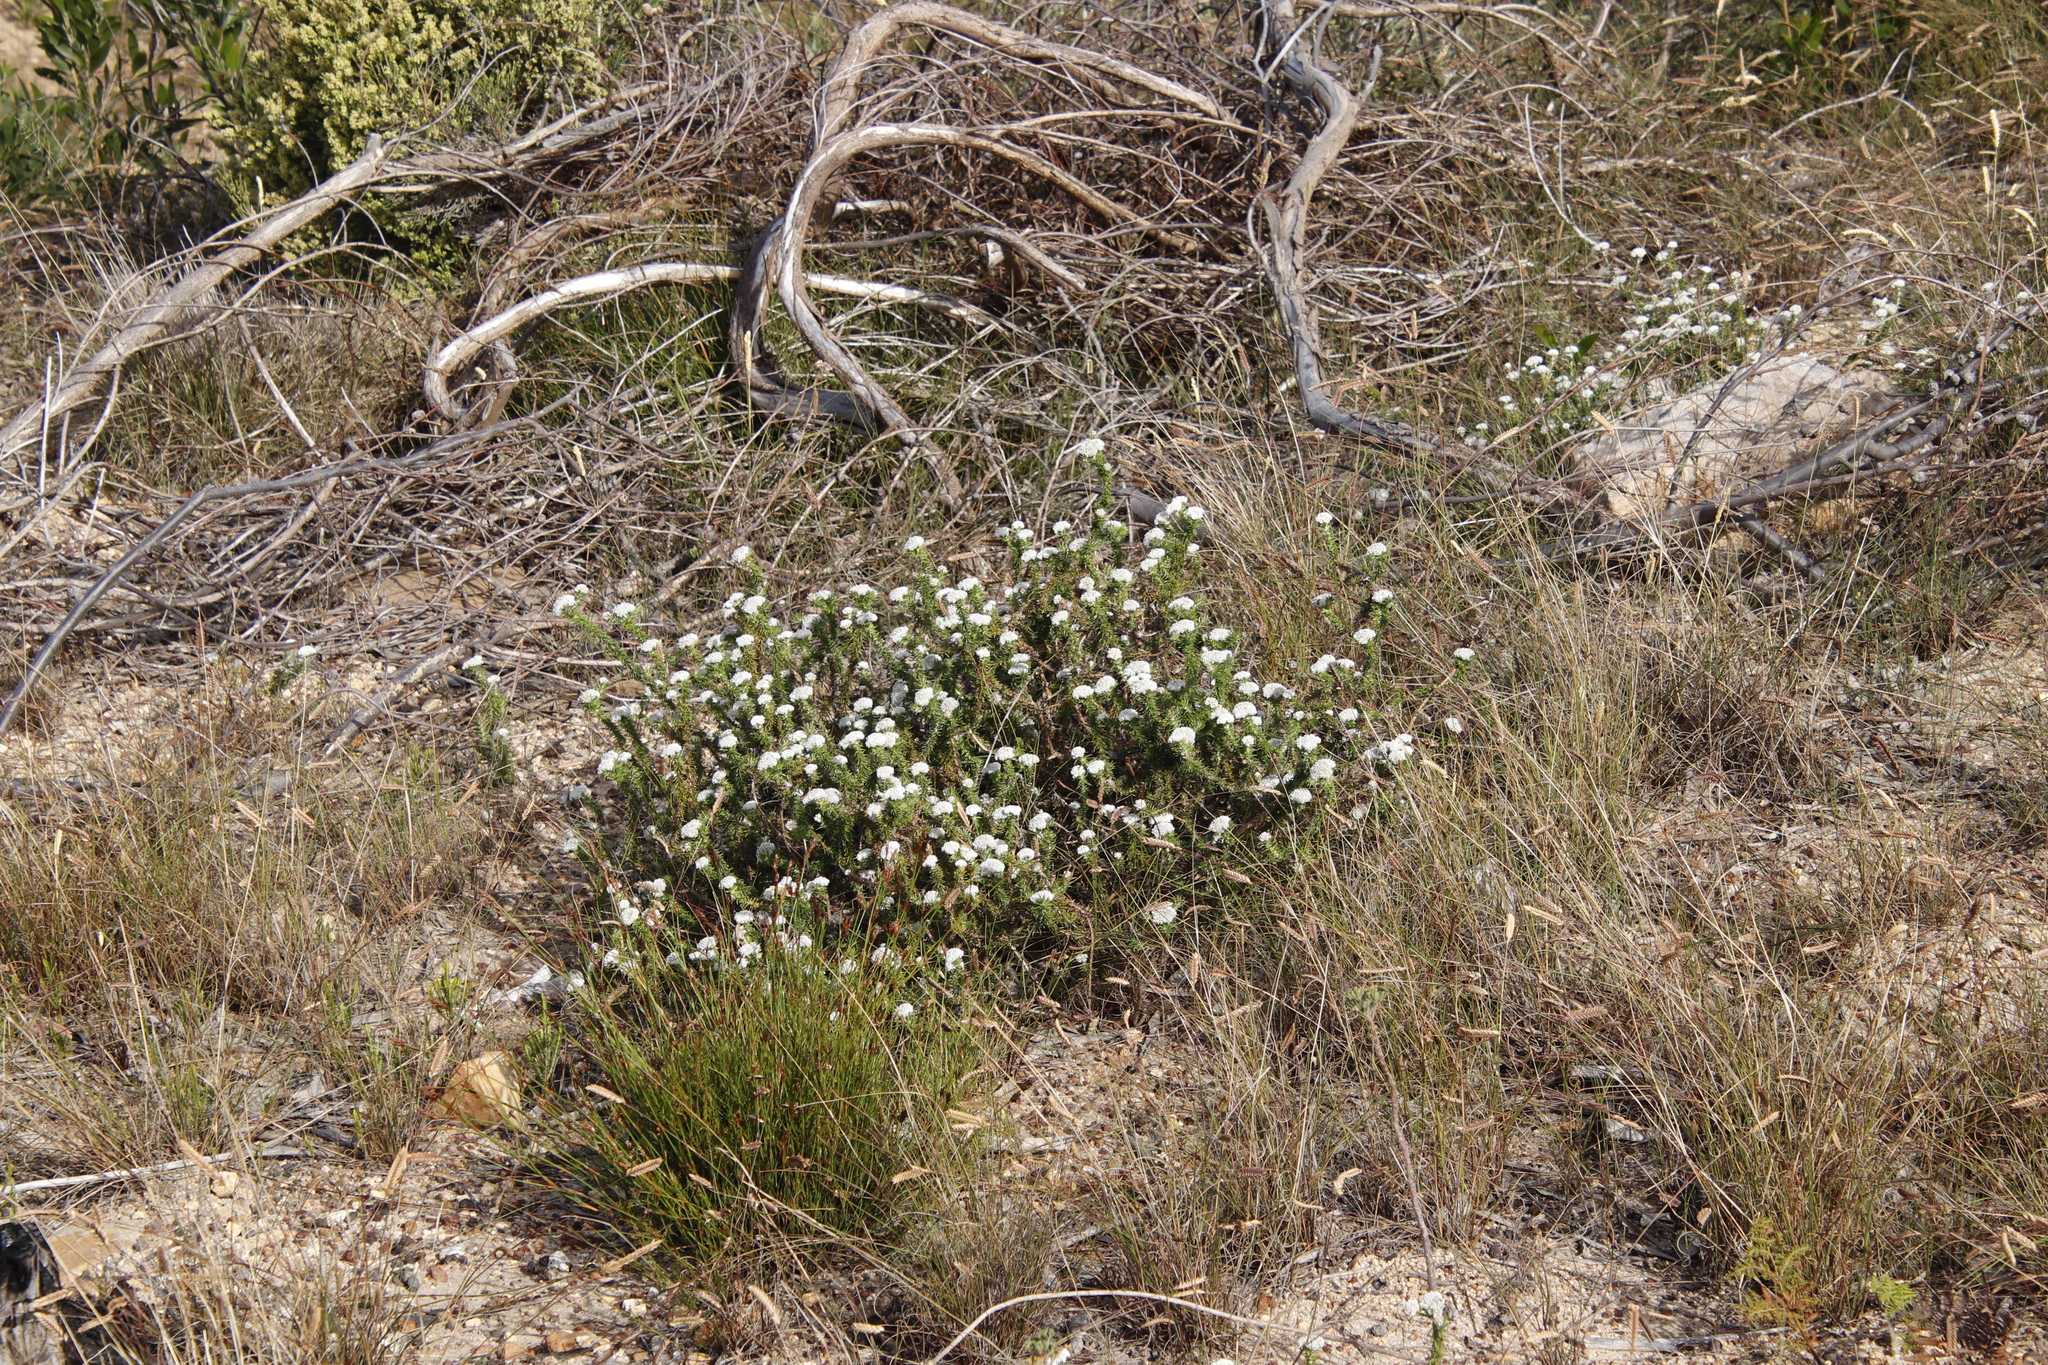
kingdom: Plantae
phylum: Tracheophyta
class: Magnoliopsida
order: Asterales
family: Asteraceae
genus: Metalasia
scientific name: Metalasia pulchella
